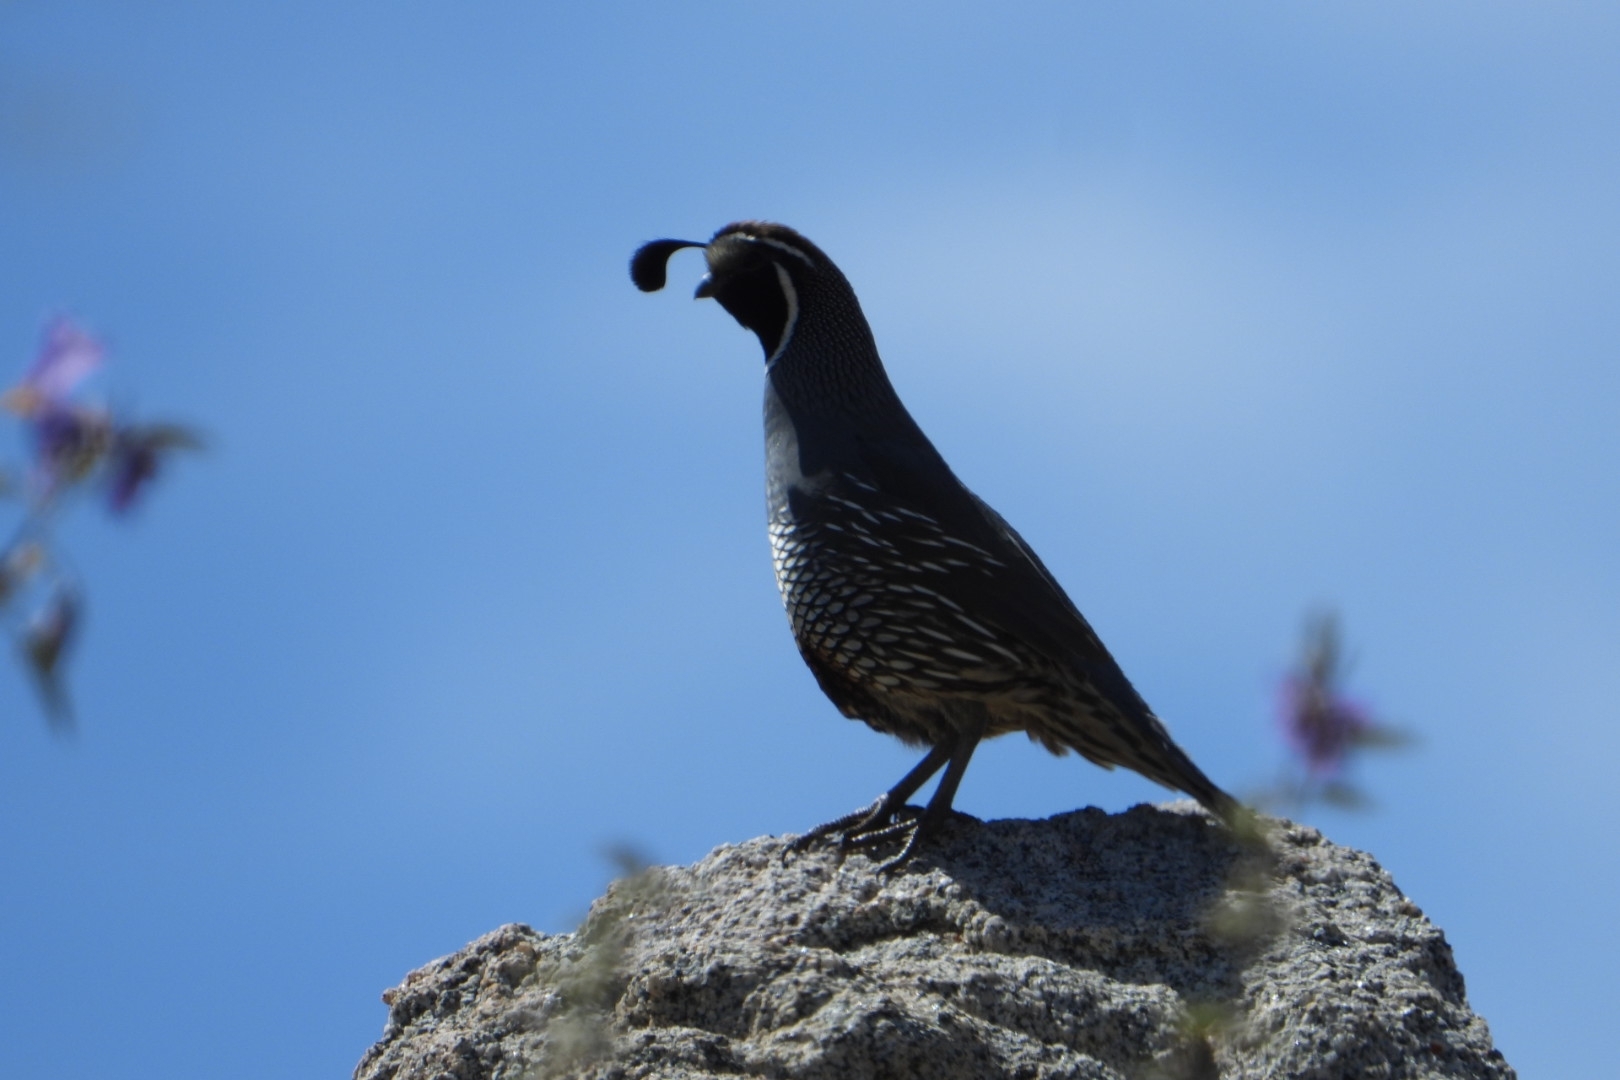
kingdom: Animalia
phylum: Chordata
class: Aves
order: Galliformes
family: Odontophoridae
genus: Callipepla
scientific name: Callipepla californica
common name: California quail
